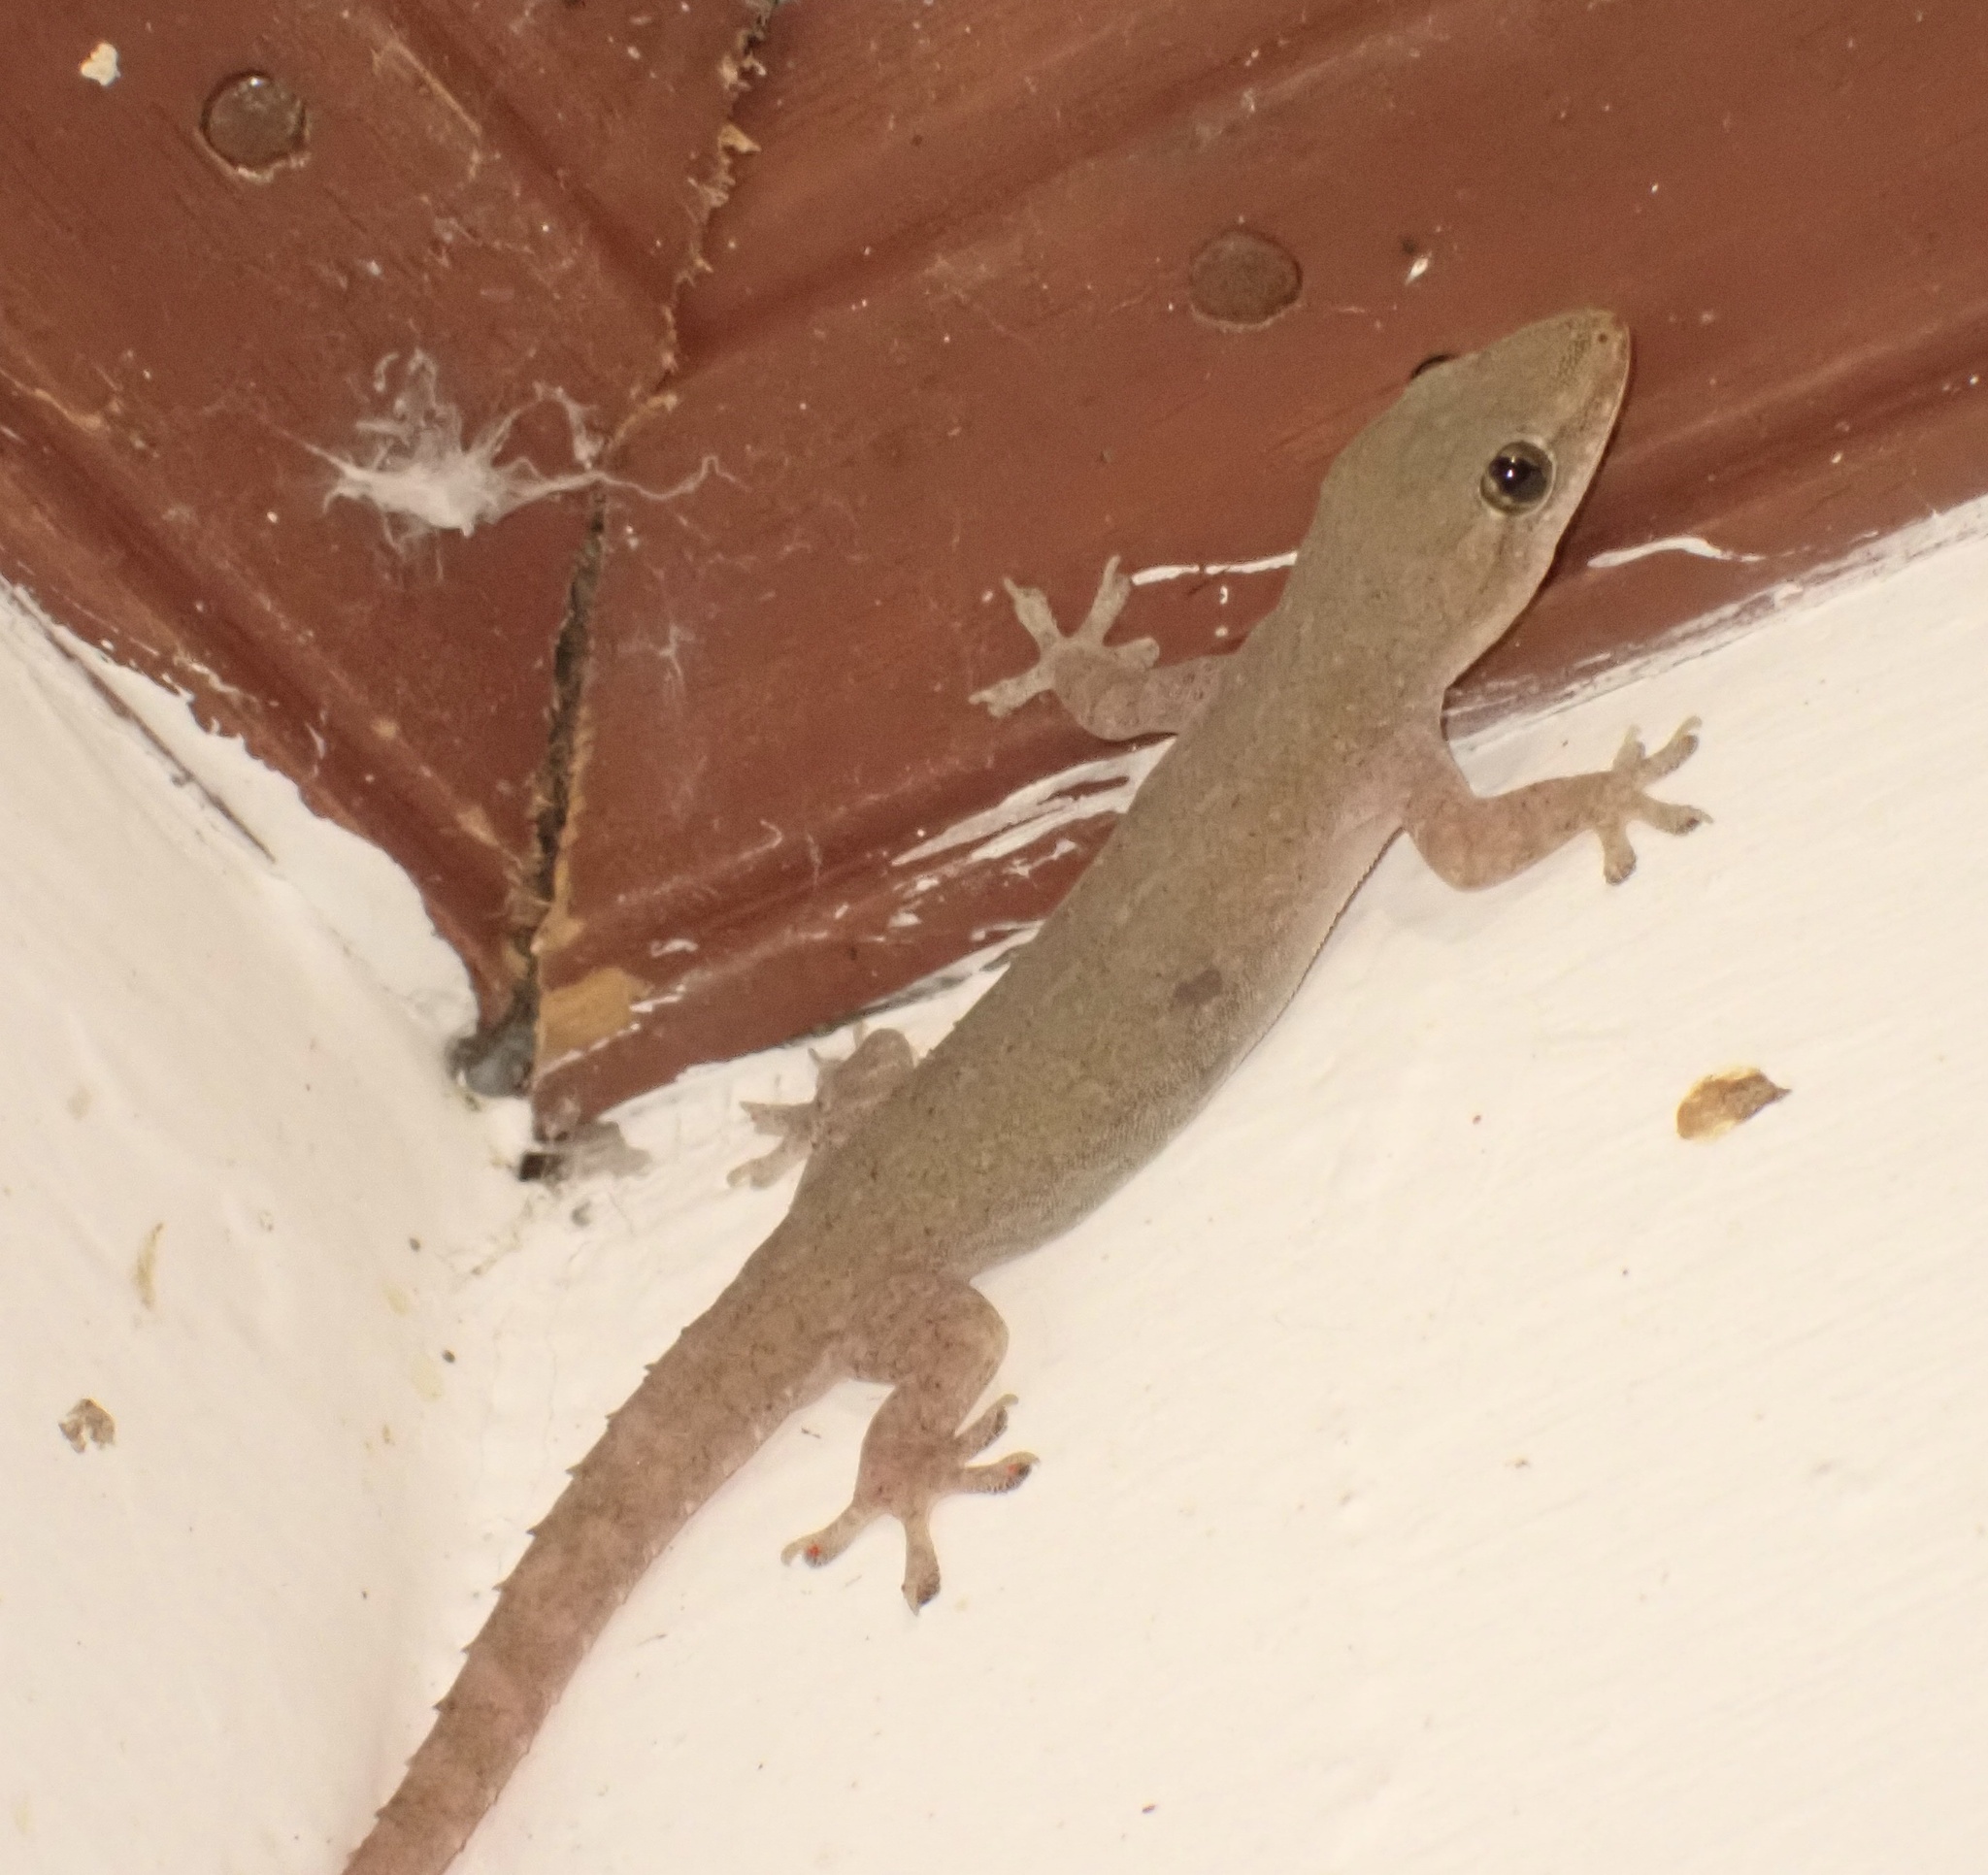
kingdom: Animalia
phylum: Chordata
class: Squamata
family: Gekkonidae
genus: Hemidactylus
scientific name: Hemidactylus frenatus
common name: Common house gecko
